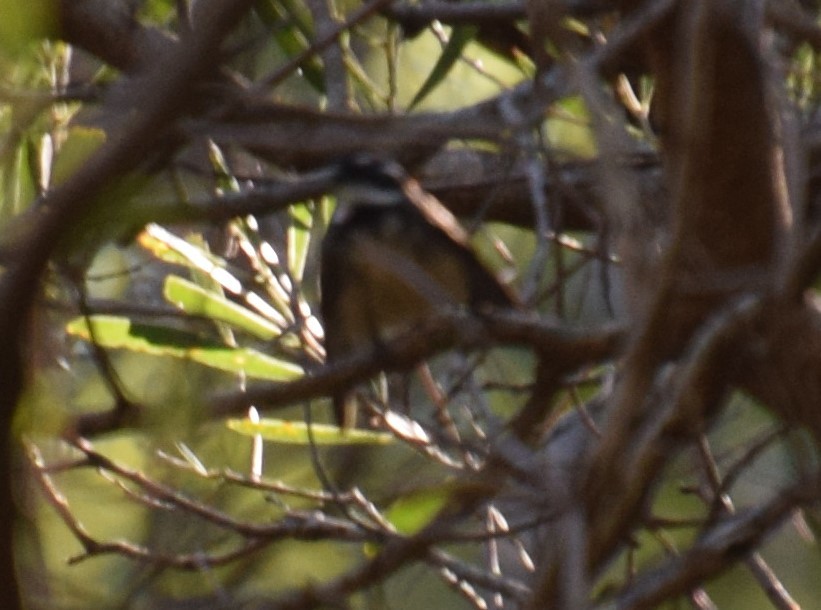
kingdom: Animalia
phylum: Chordata
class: Aves
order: Passeriformes
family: Rhipiduridae
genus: Rhipidura
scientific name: Rhipidura albiscapa
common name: Grey fantail
